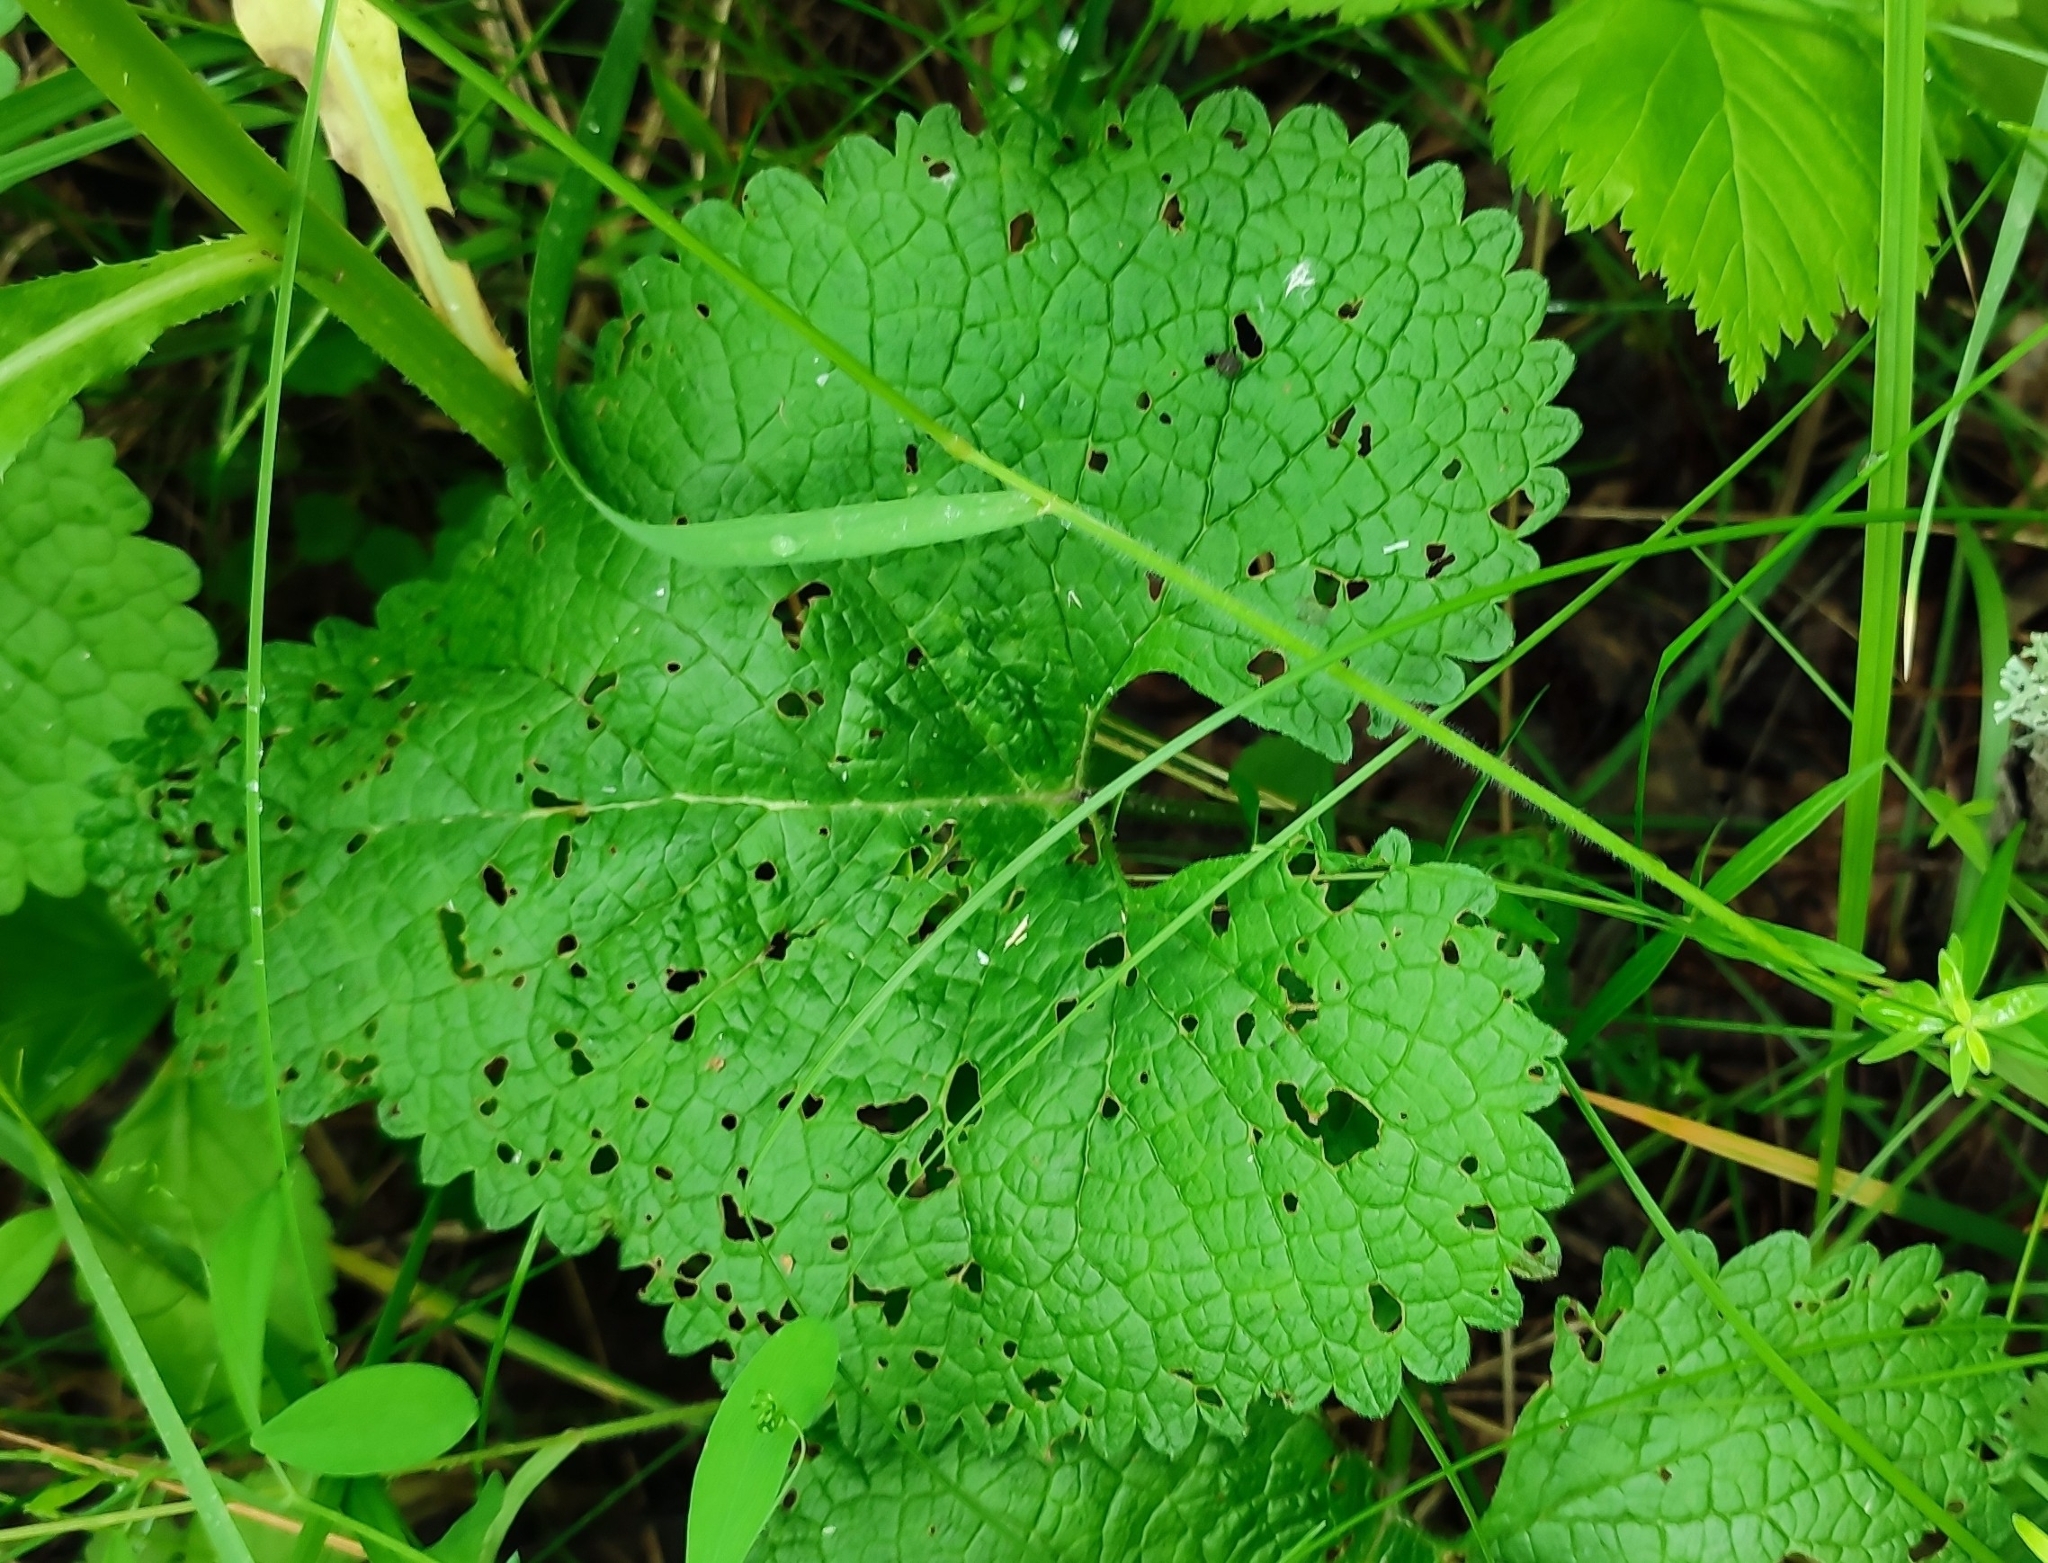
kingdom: Plantae
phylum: Tracheophyta
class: Magnoliopsida
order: Lamiales
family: Lamiaceae
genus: Phlomoides
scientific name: Phlomoides tuberosa
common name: Tuberous jerusalem sage
